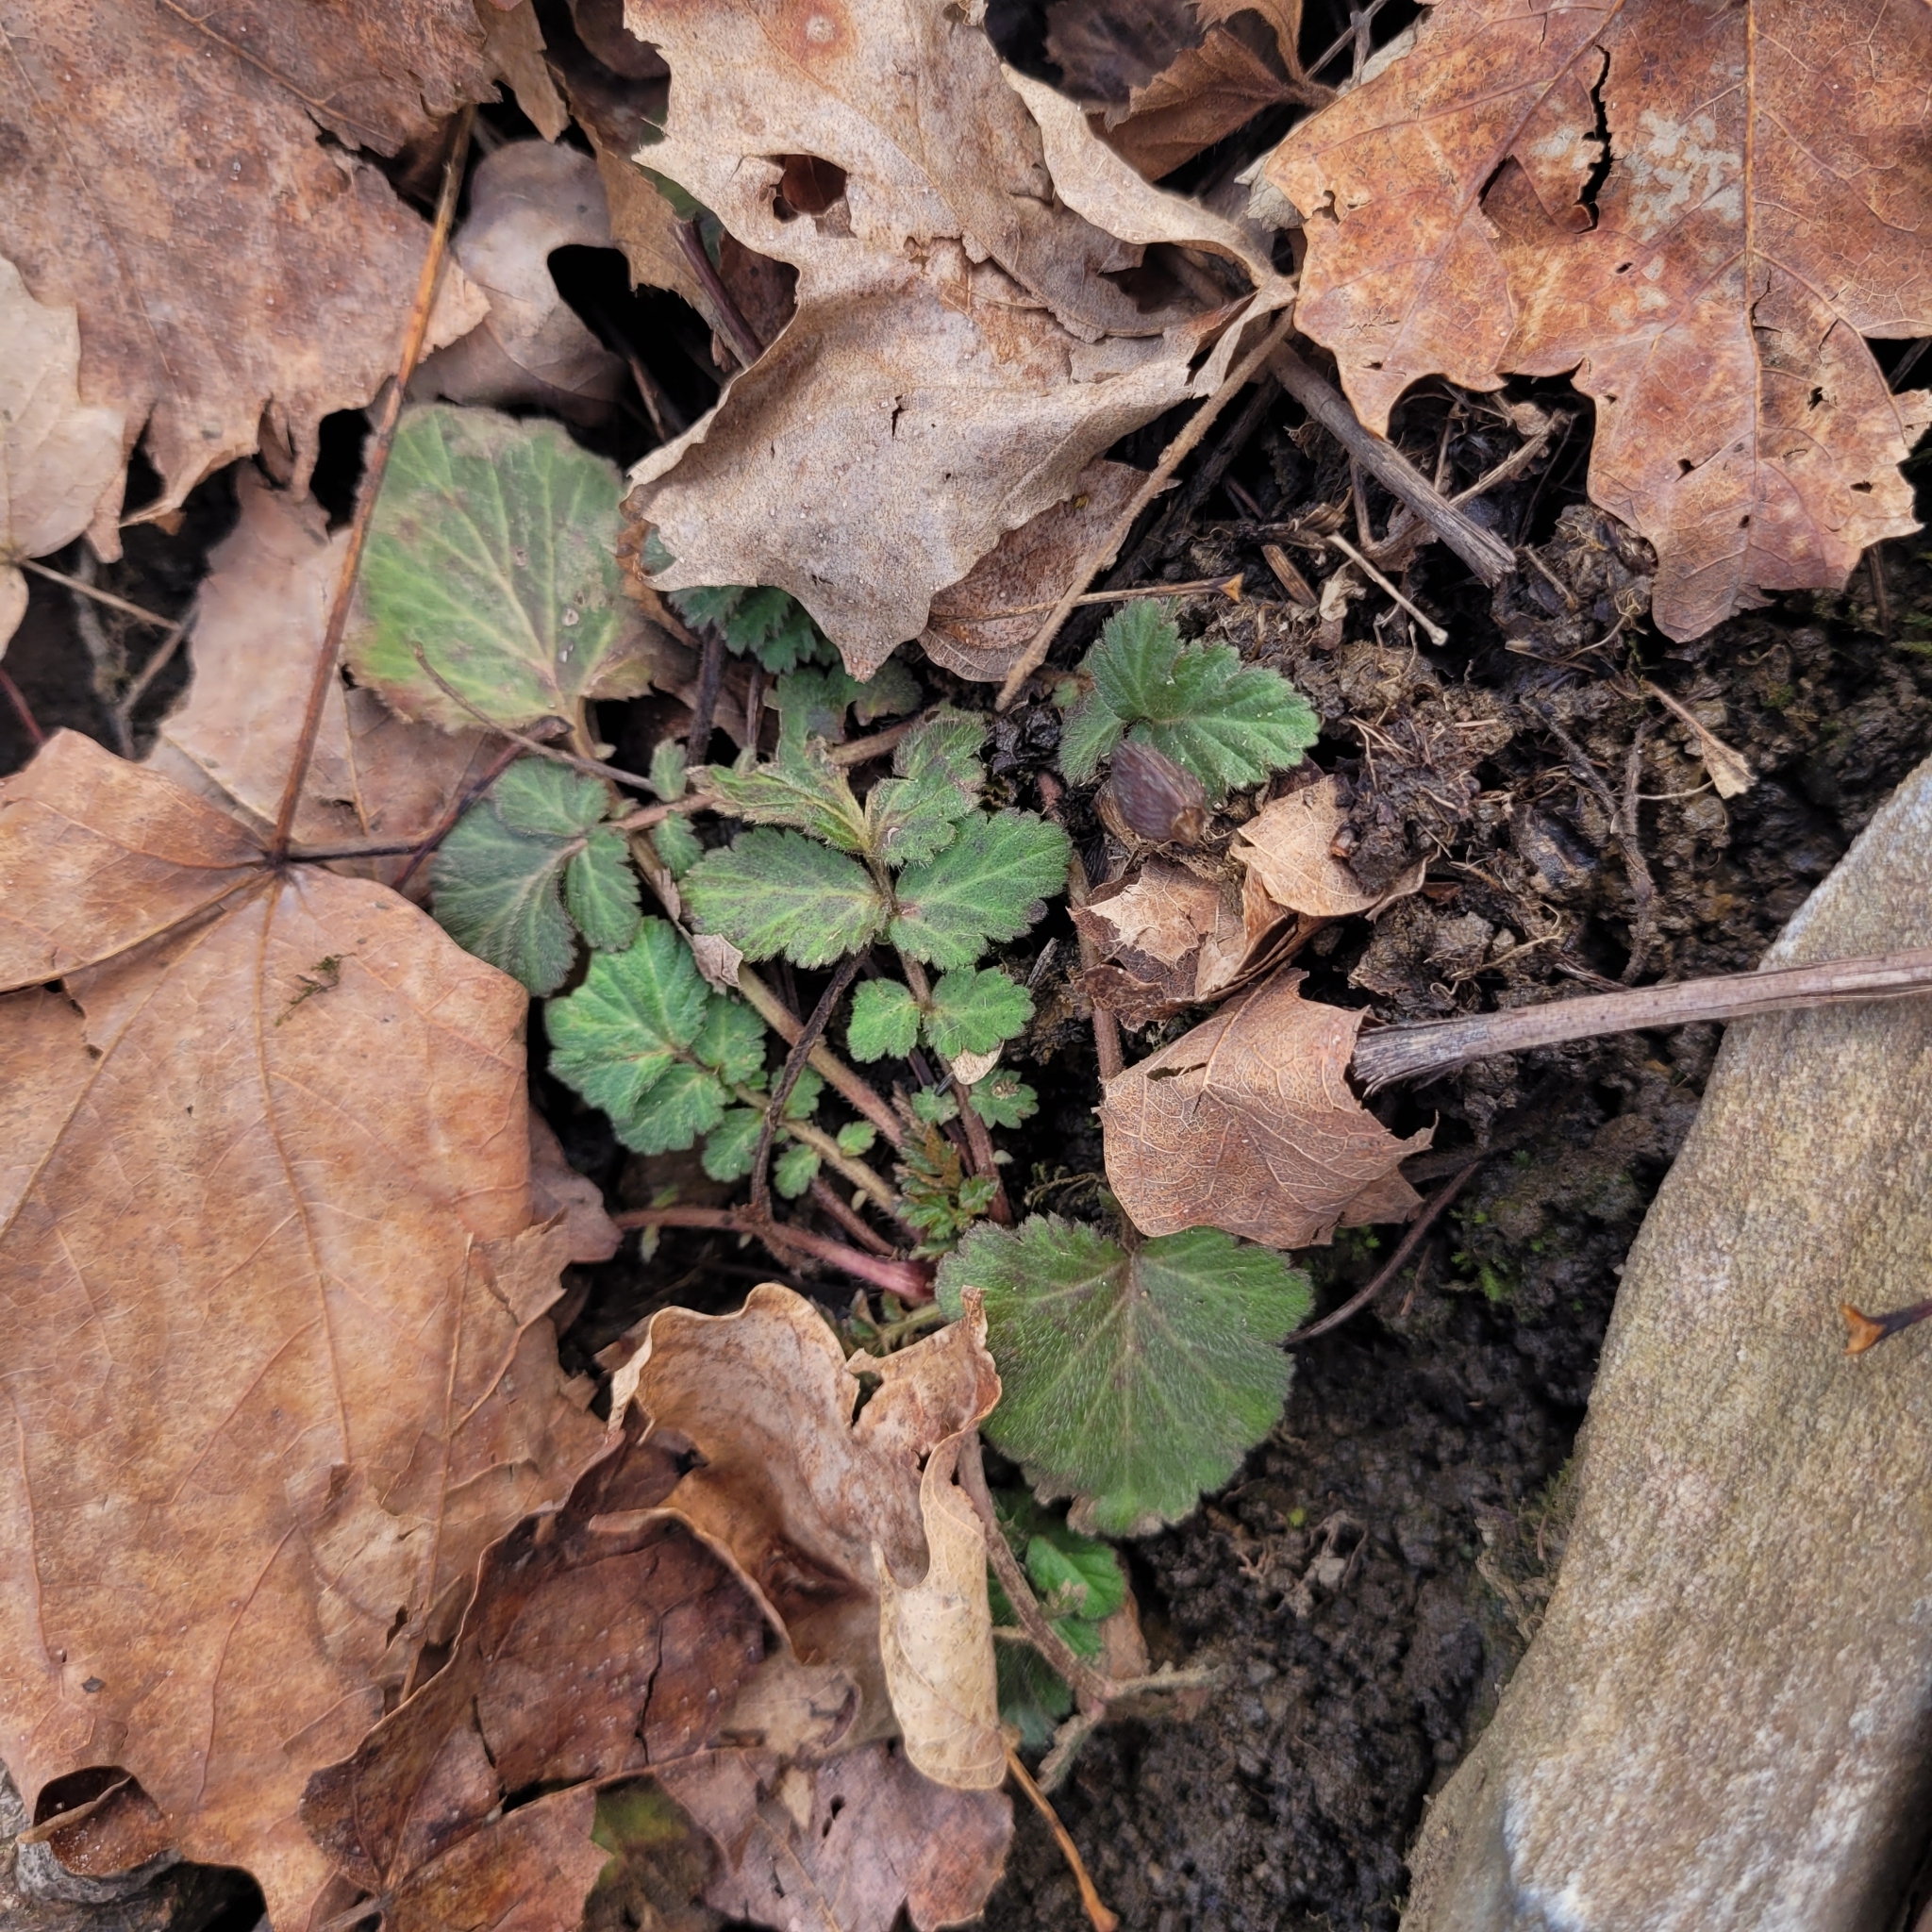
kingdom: Plantae
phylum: Tracheophyta
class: Magnoliopsida
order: Rosales
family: Rosaceae
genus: Geum
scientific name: Geum canadense
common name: White avens
